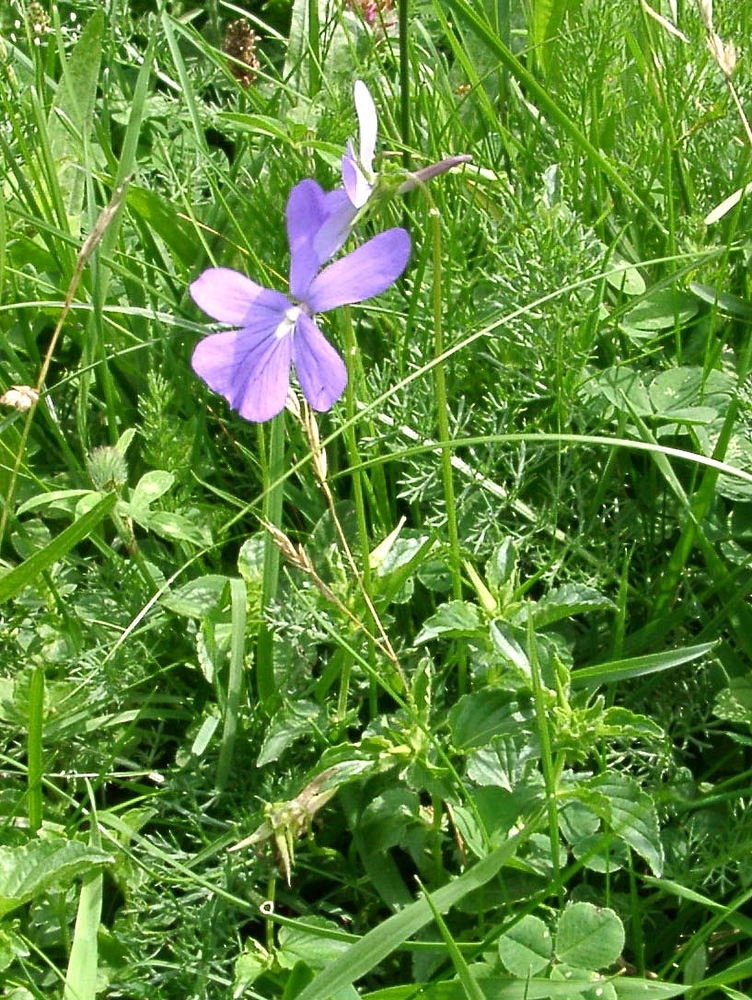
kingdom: Plantae
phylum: Tracheophyta
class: Magnoliopsida
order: Malpighiales
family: Violaceae
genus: Viola
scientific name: Viola cornuta
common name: Horned pansy
